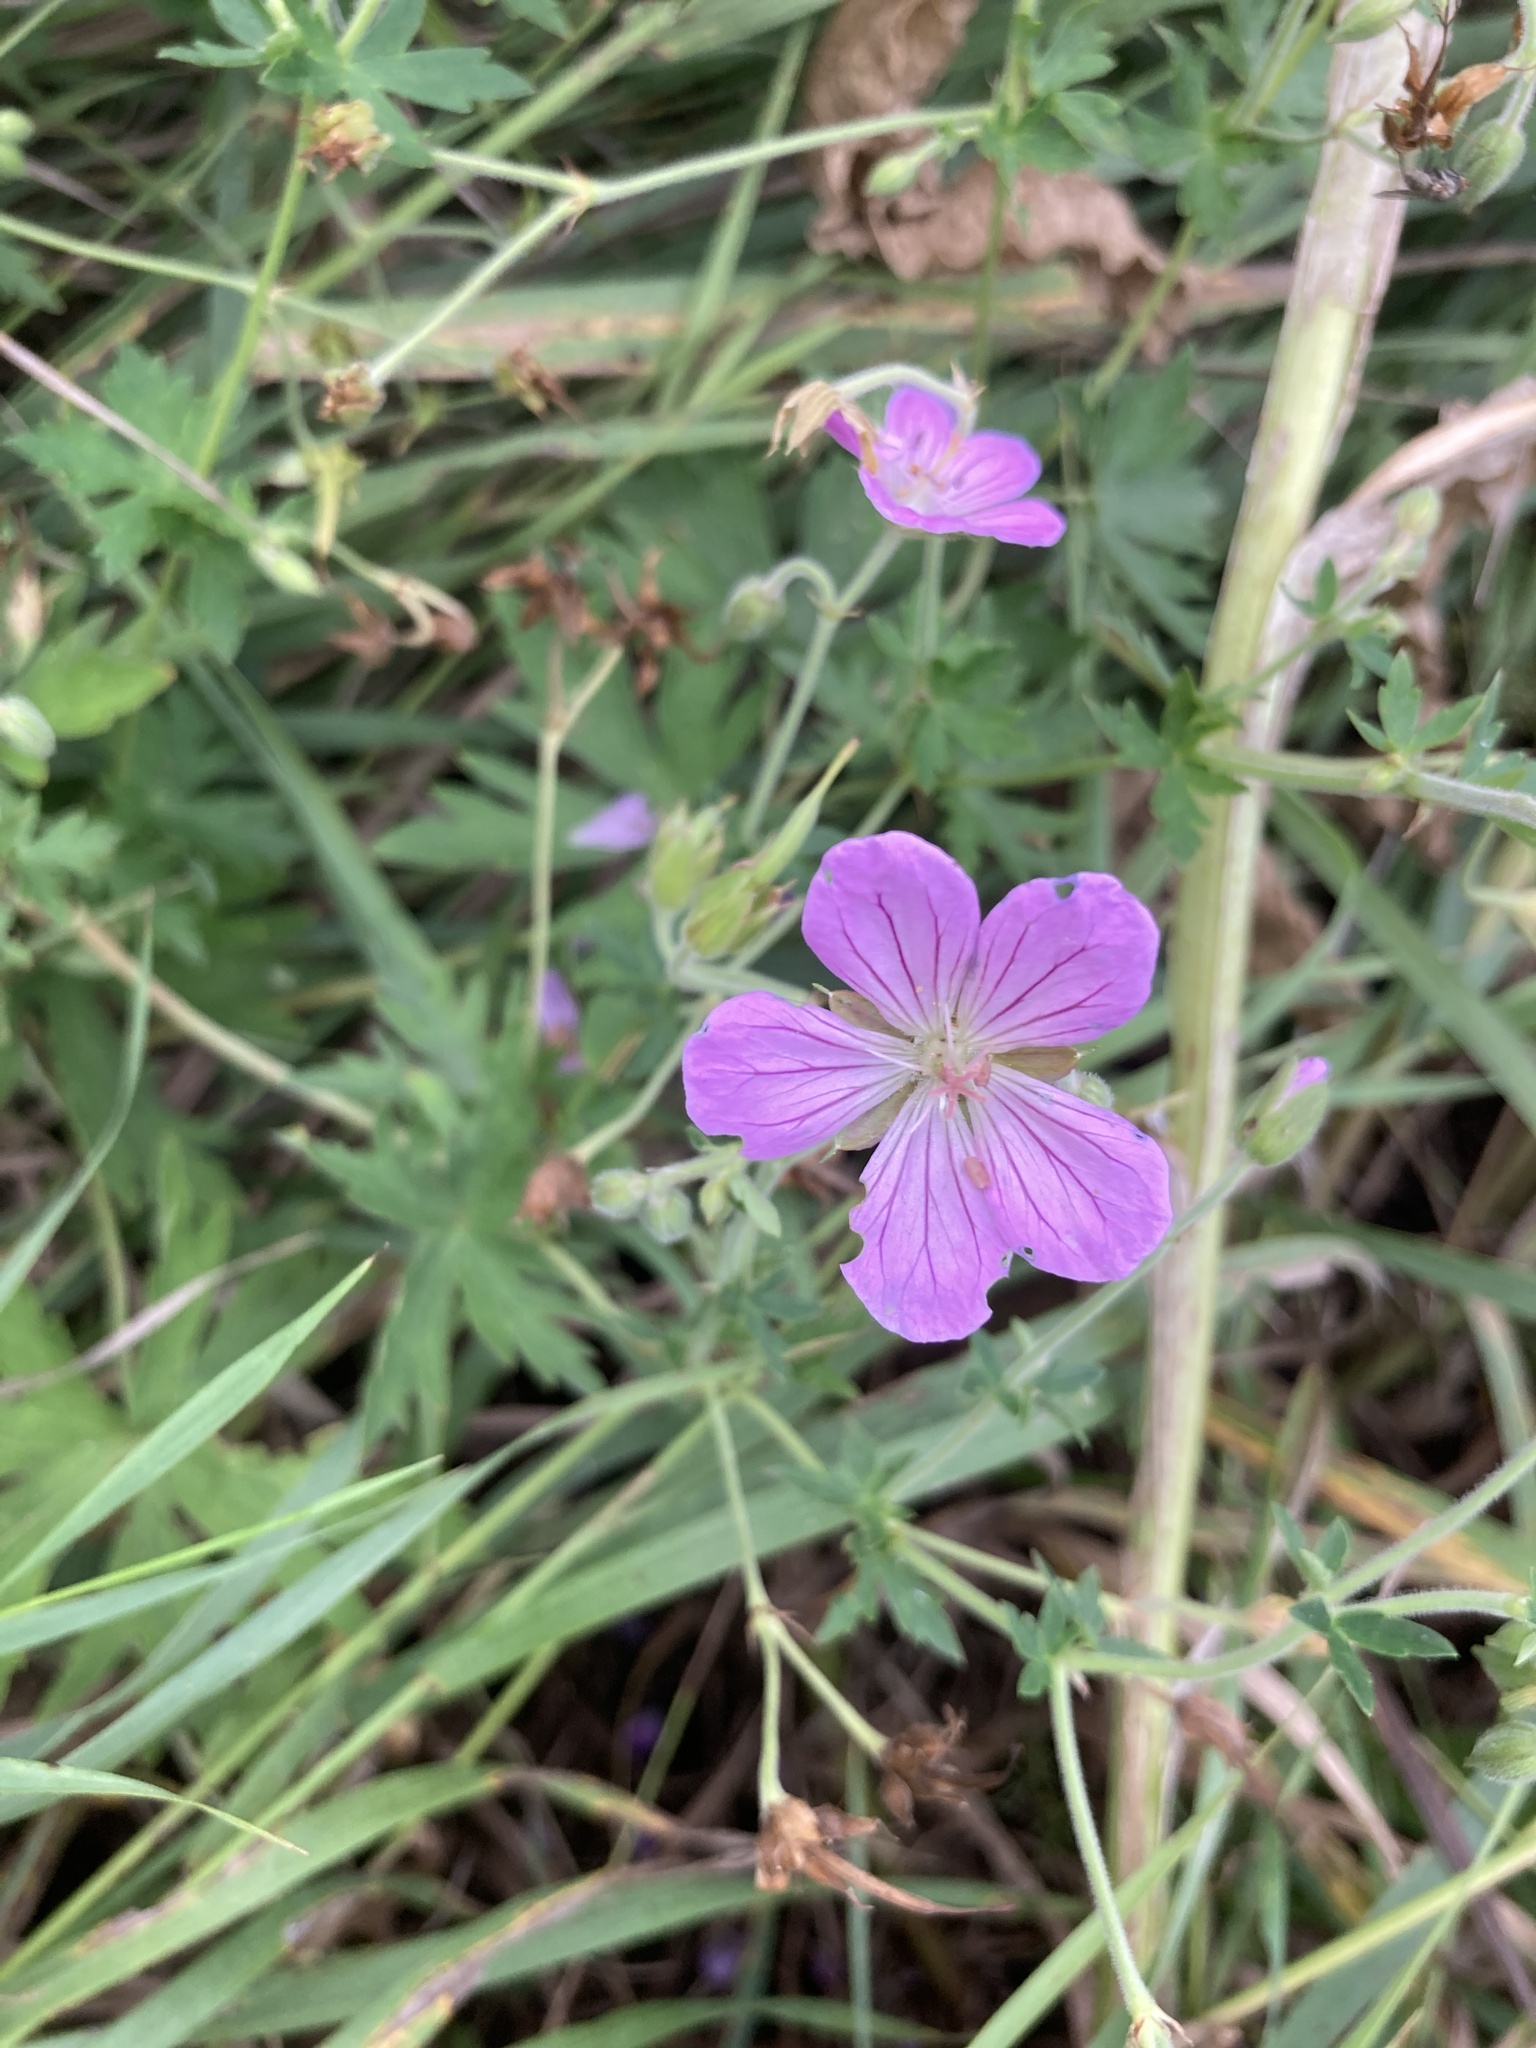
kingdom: Plantae
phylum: Tracheophyta
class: Magnoliopsida
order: Geraniales
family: Geraniaceae
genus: Geranium
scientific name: Geranium collinum
